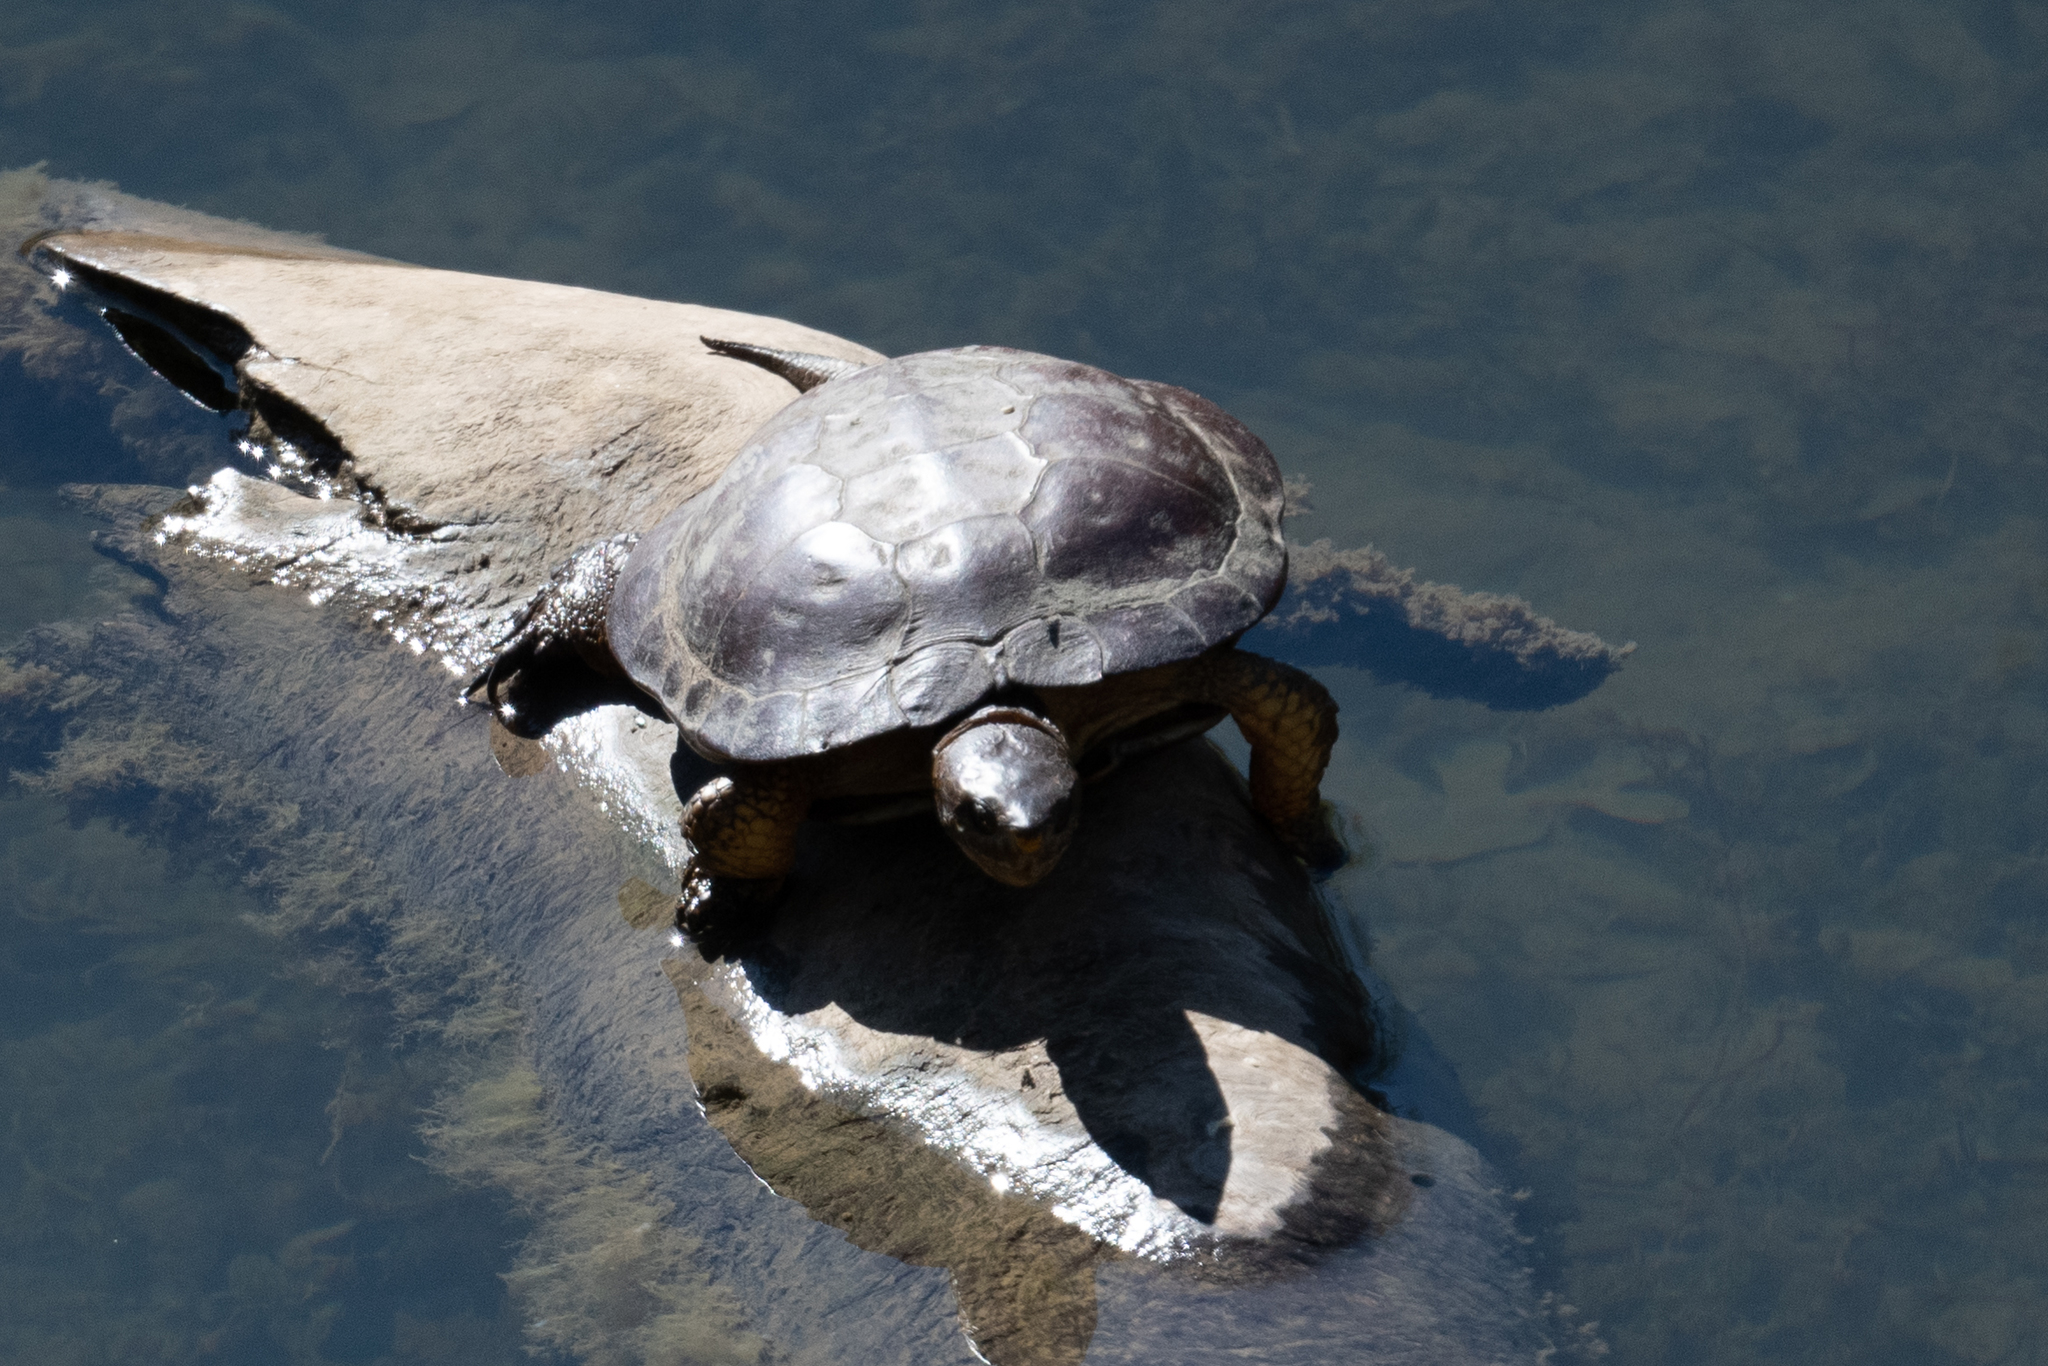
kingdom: Animalia
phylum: Chordata
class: Testudines
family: Emydidae
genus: Actinemys
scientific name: Actinemys marmorata
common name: Western pond turtle
